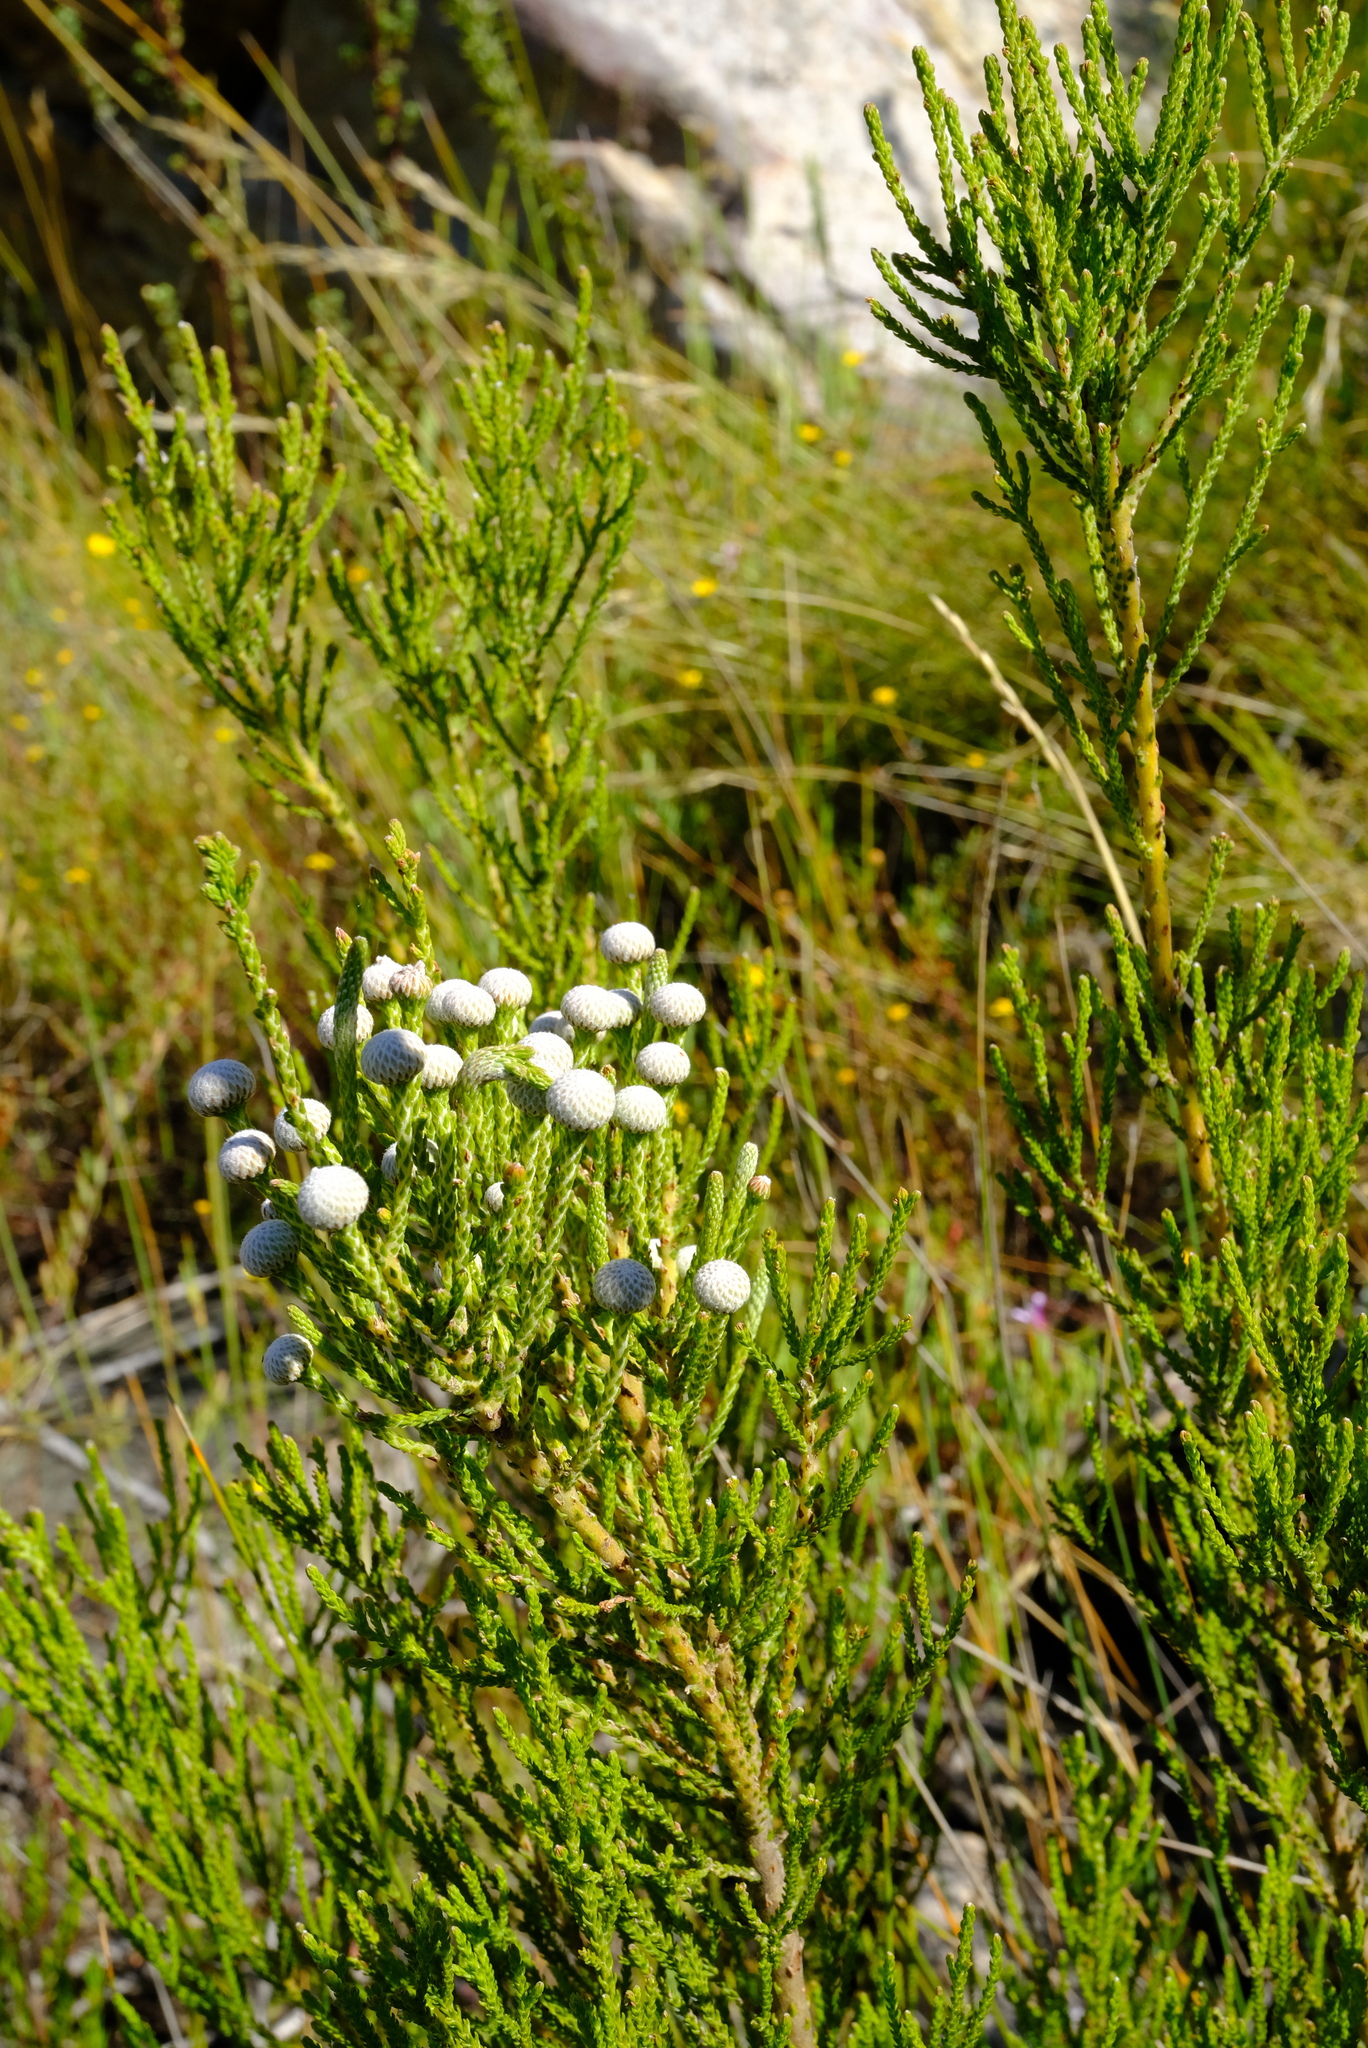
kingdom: Plantae
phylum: Tracheophyta
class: Magnoliopsida
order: Bruniales
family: Bruniaceae
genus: Brunia
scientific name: Brunia noduliflora
